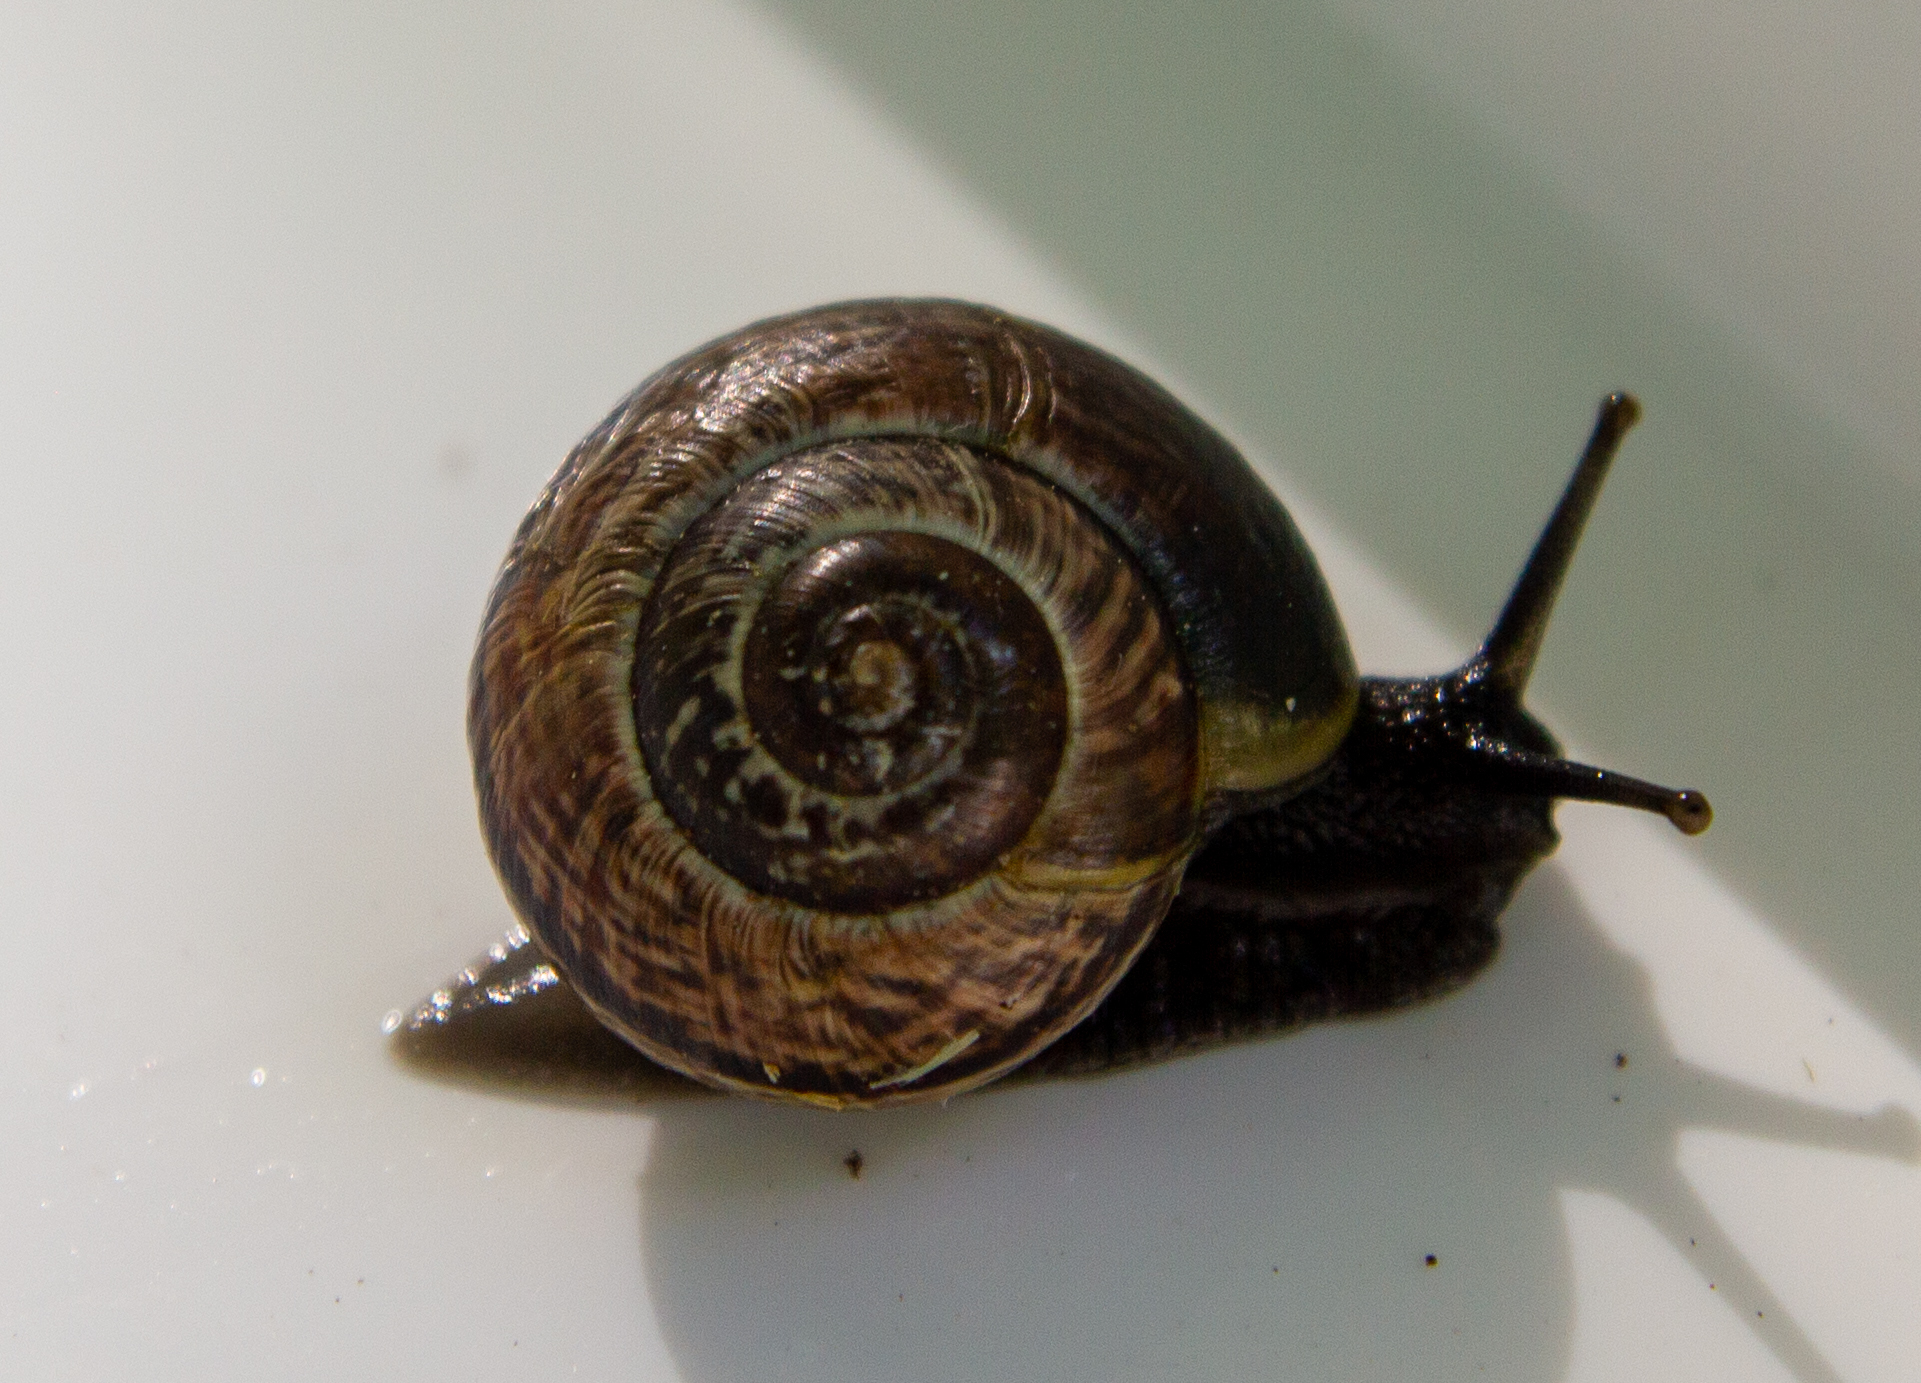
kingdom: Animalia
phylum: Mollusca
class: Gastropoda
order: Stylommatophora
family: Helicidae
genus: Arianta
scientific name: Arianta arbustorum
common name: Copse snail
